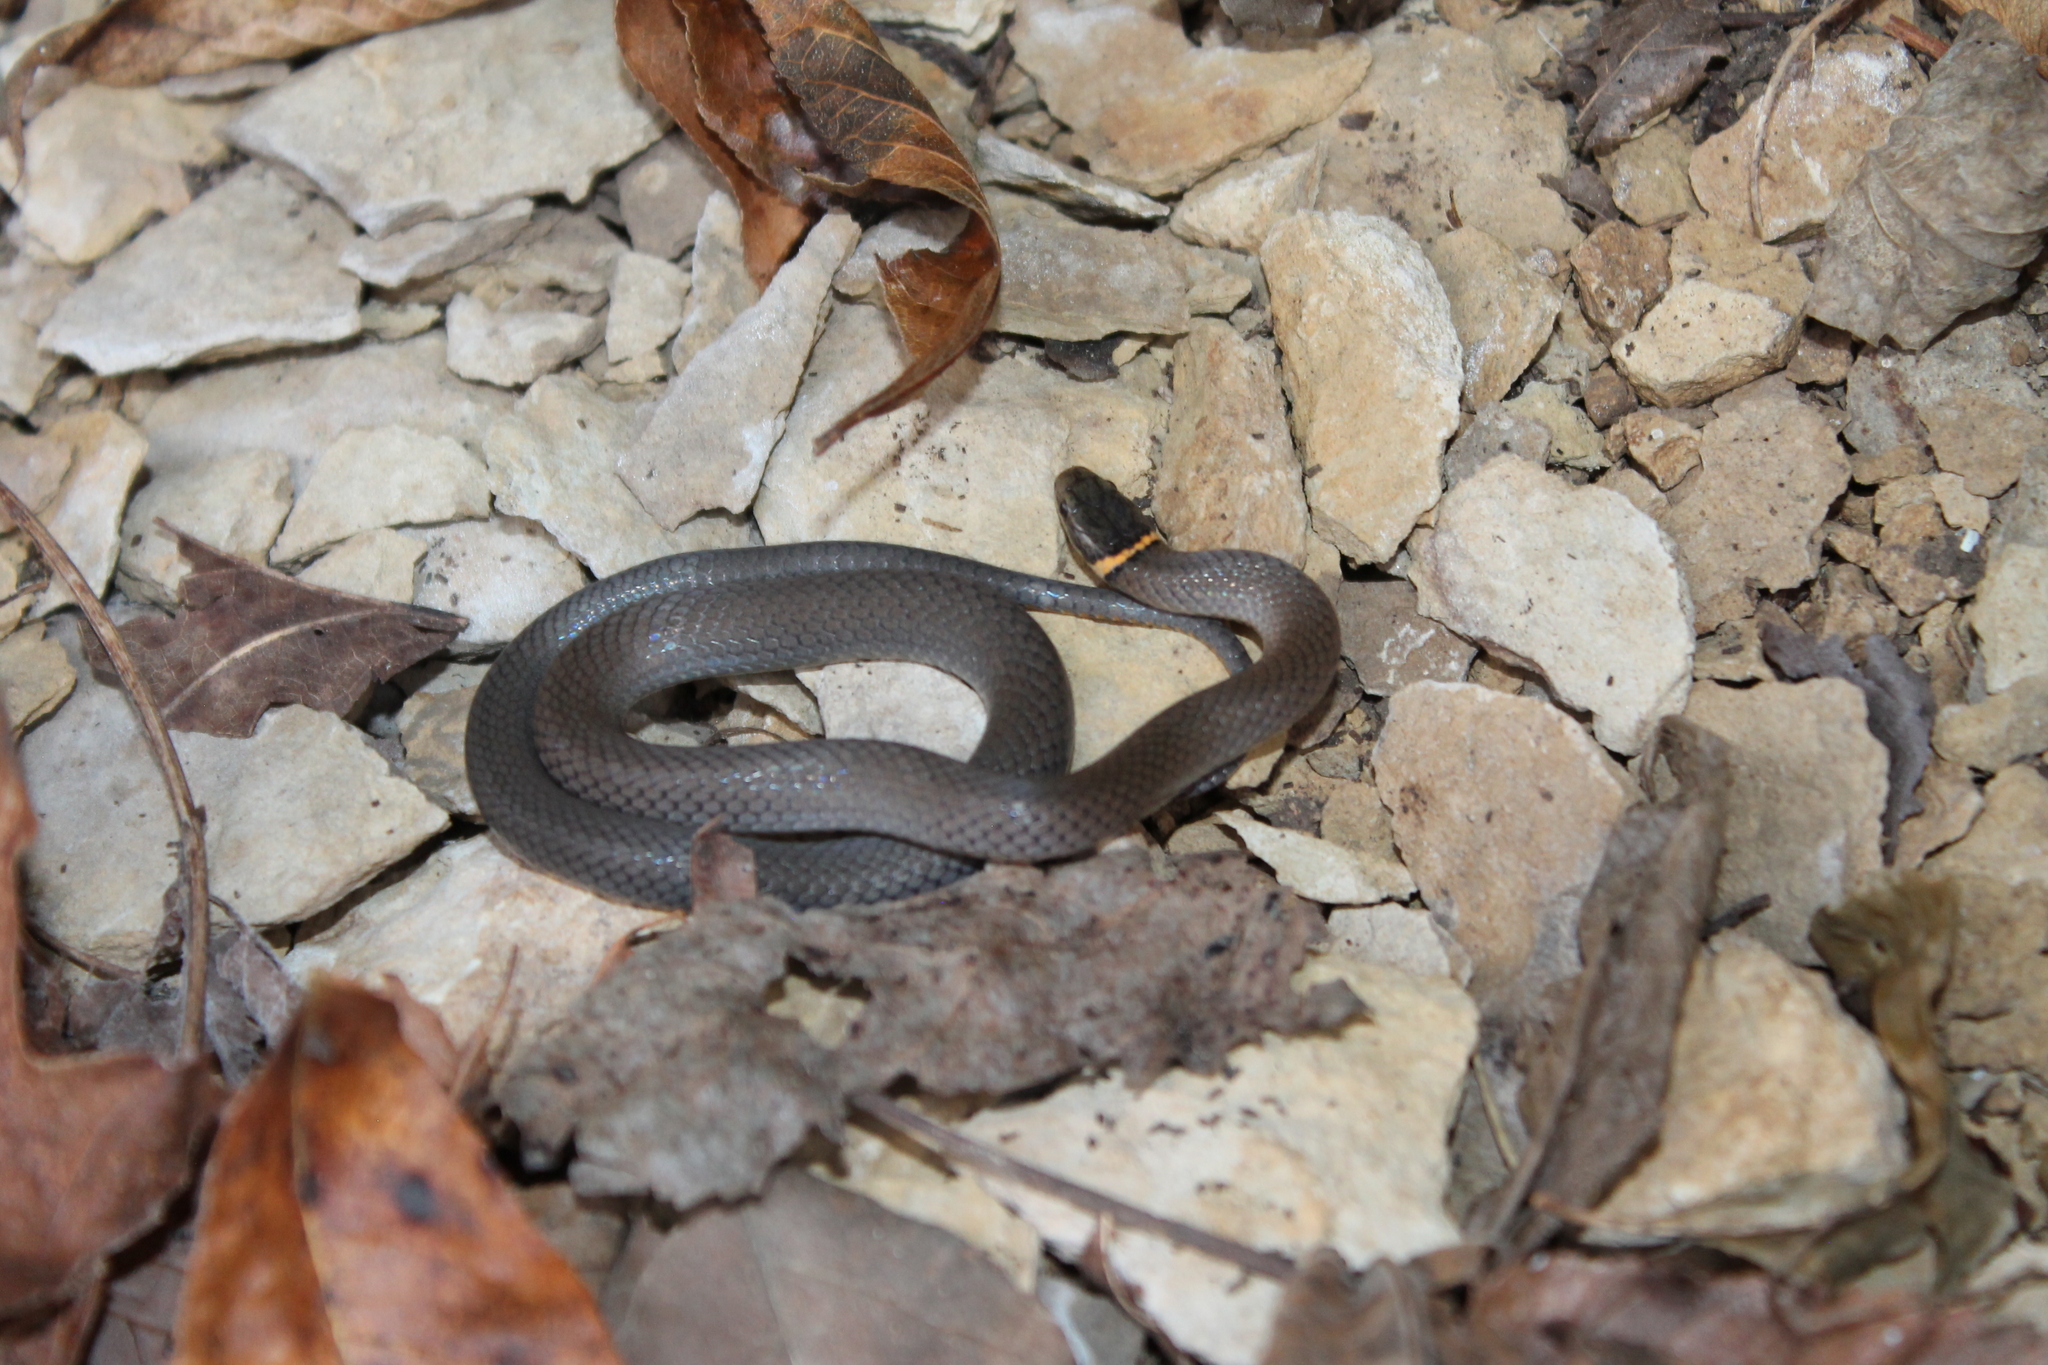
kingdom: Animalia
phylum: Chordata
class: Squamata
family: Colubridae
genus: Diadophis
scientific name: Diadophis punctatus
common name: Ringneck snake
